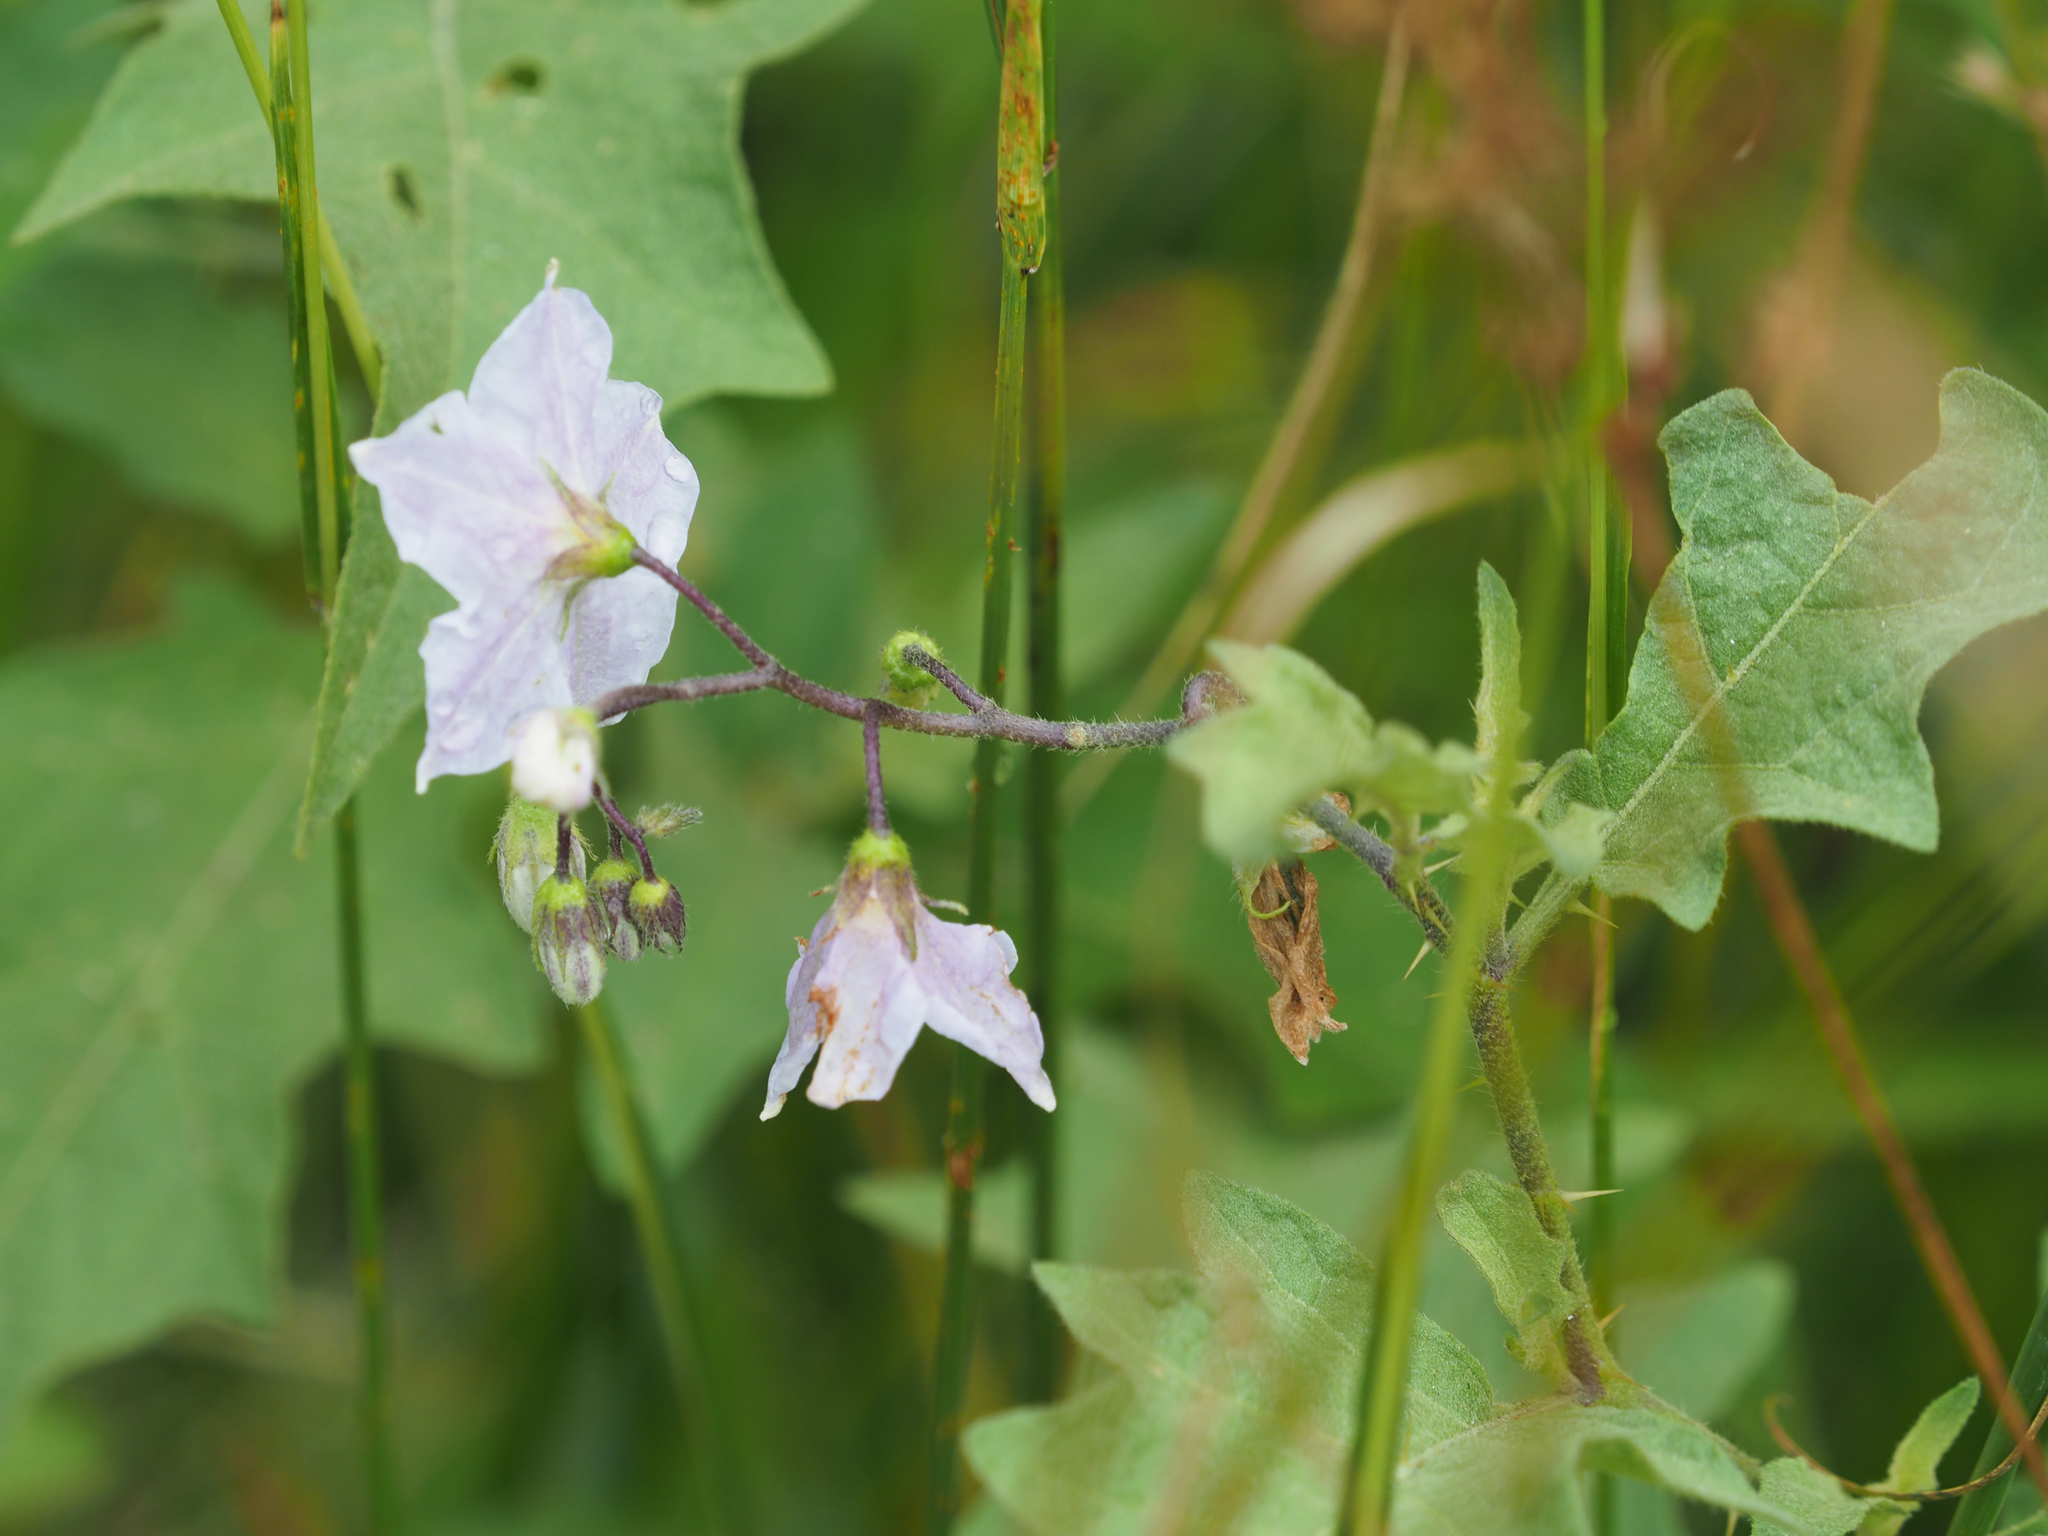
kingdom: Plantae
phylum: Tracheophyta
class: Magnoliopsida
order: Solanales
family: Solanaceae
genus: Solanum
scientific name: Solanum carolinense
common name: Horse-nettle
